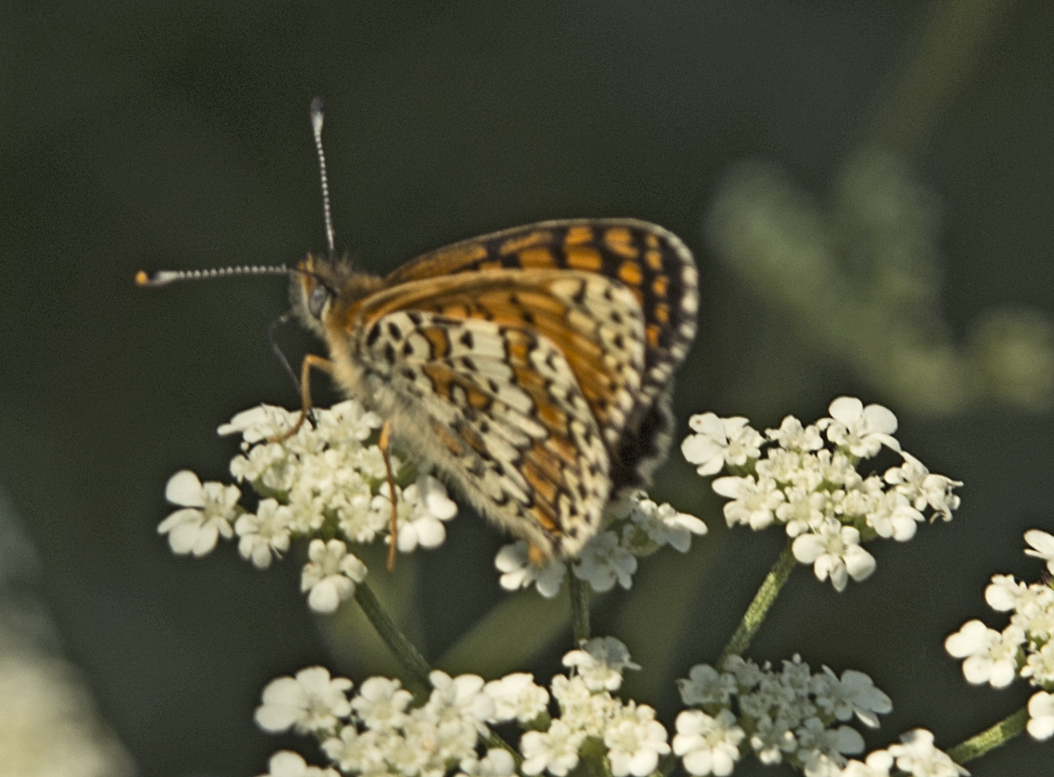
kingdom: Animalia
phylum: Arthropoda
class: Insecta
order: Lepidoptera
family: Nymphalidae
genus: Melitaea
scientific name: Melitaea cinxia
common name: Glanville fritillary
